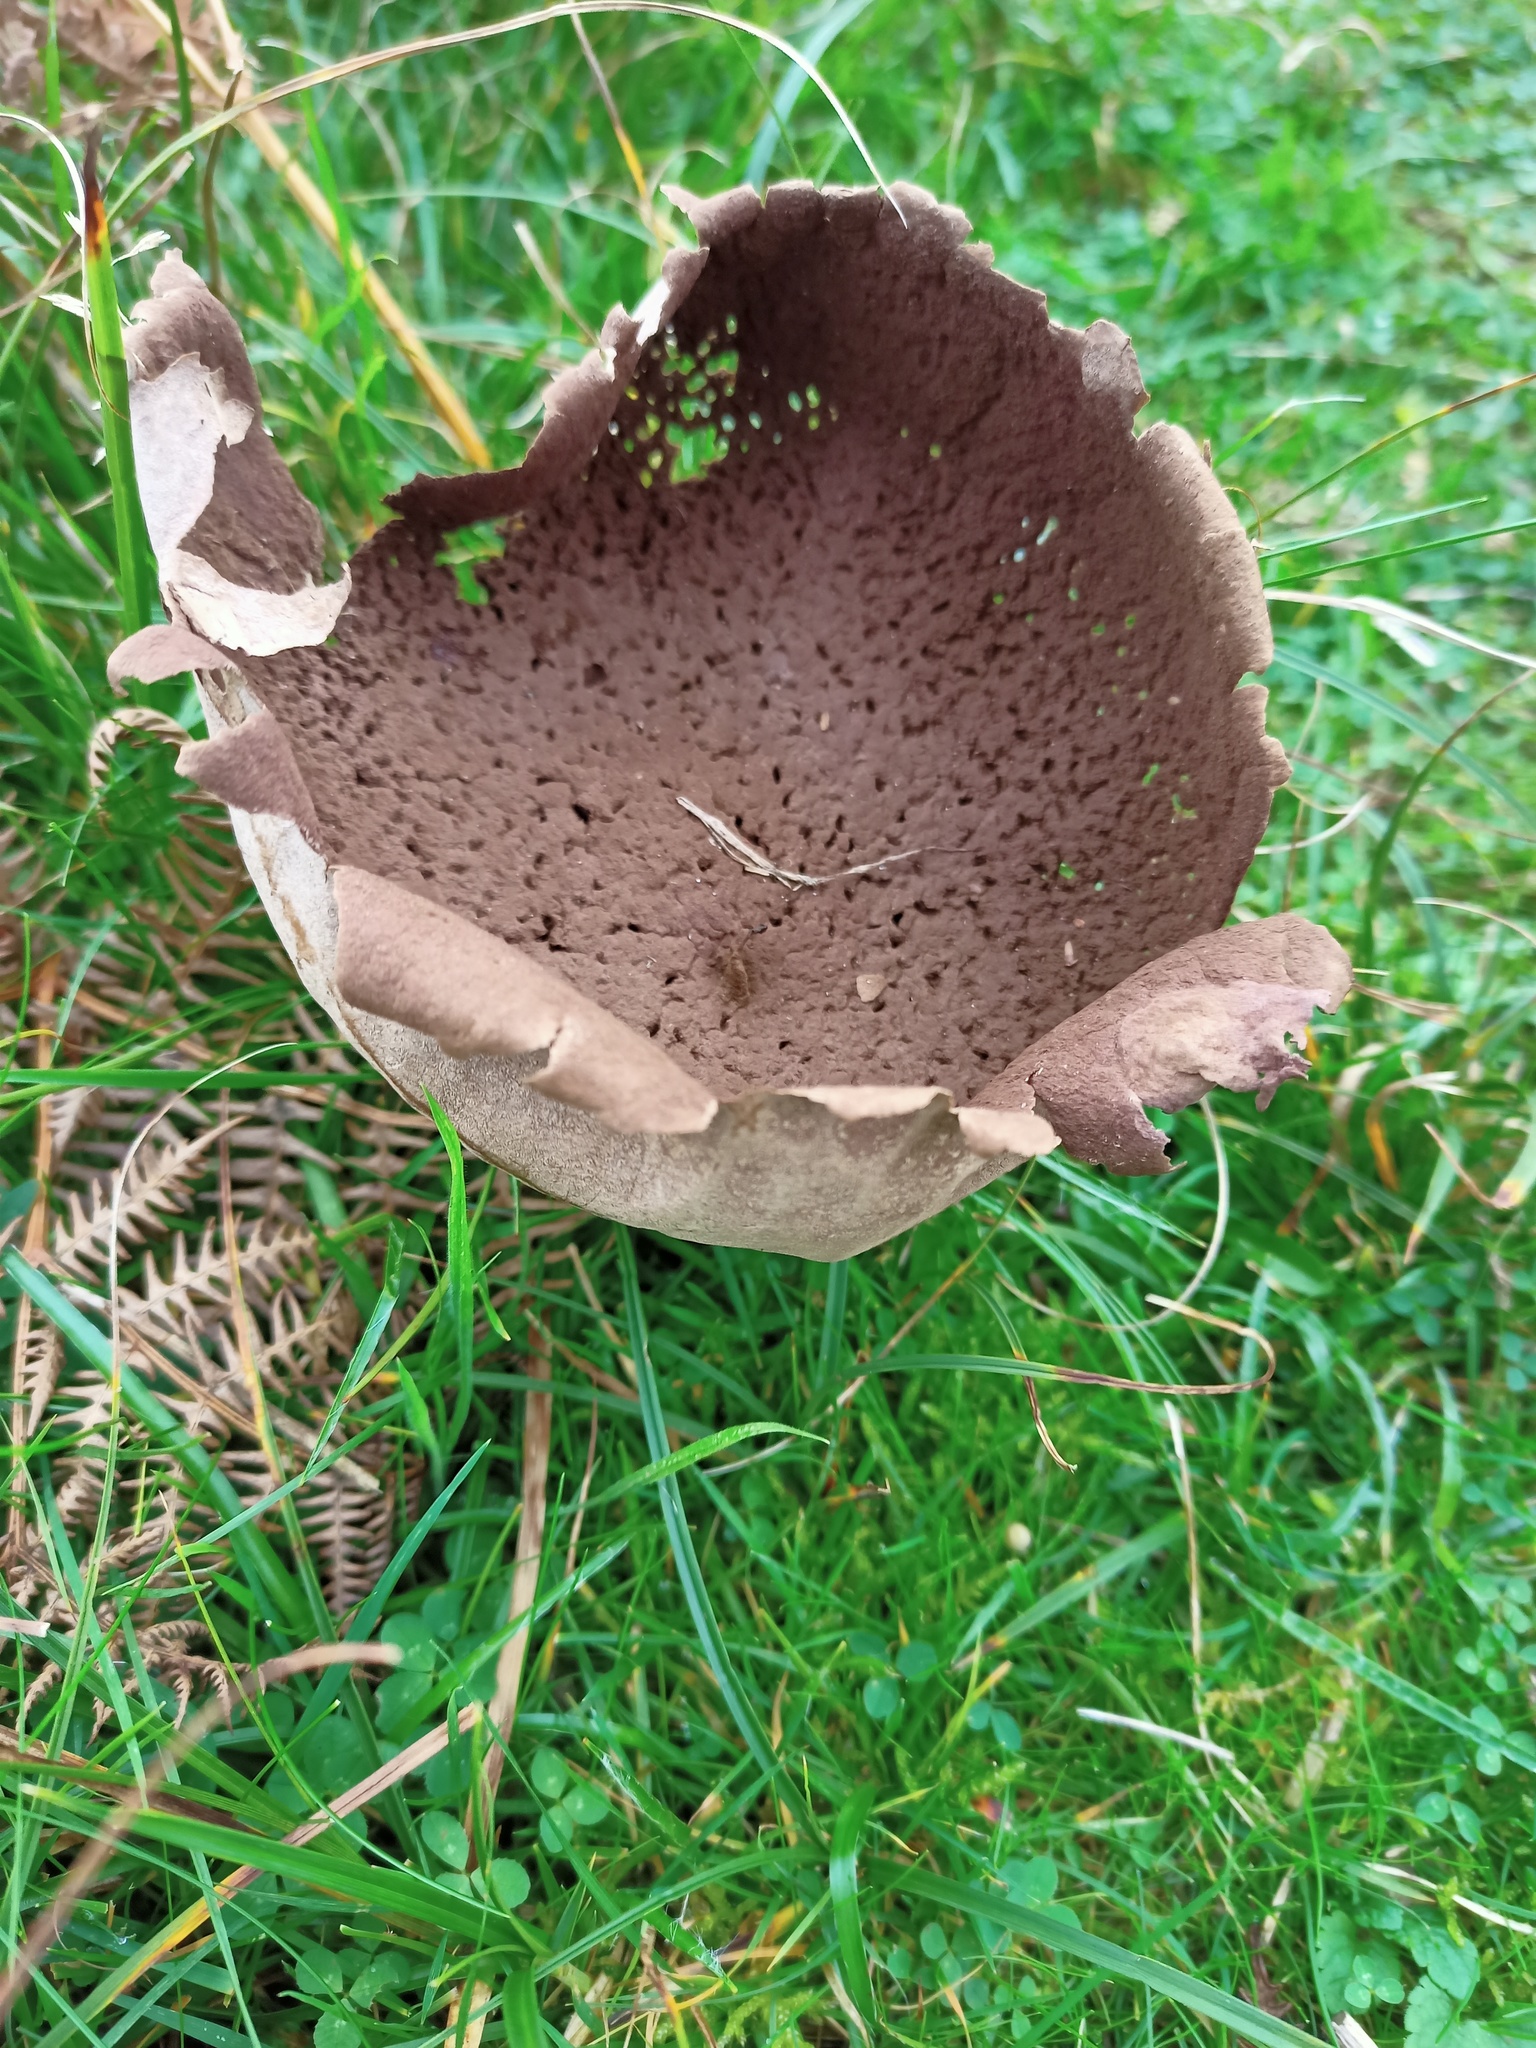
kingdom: Fungi
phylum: Basidiomycota
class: Agaricomycetes
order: Agaricales
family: Lycoperdaceae
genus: Lycoperdon
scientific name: Lycoperdon excipuliforme
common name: Pestle puffball
